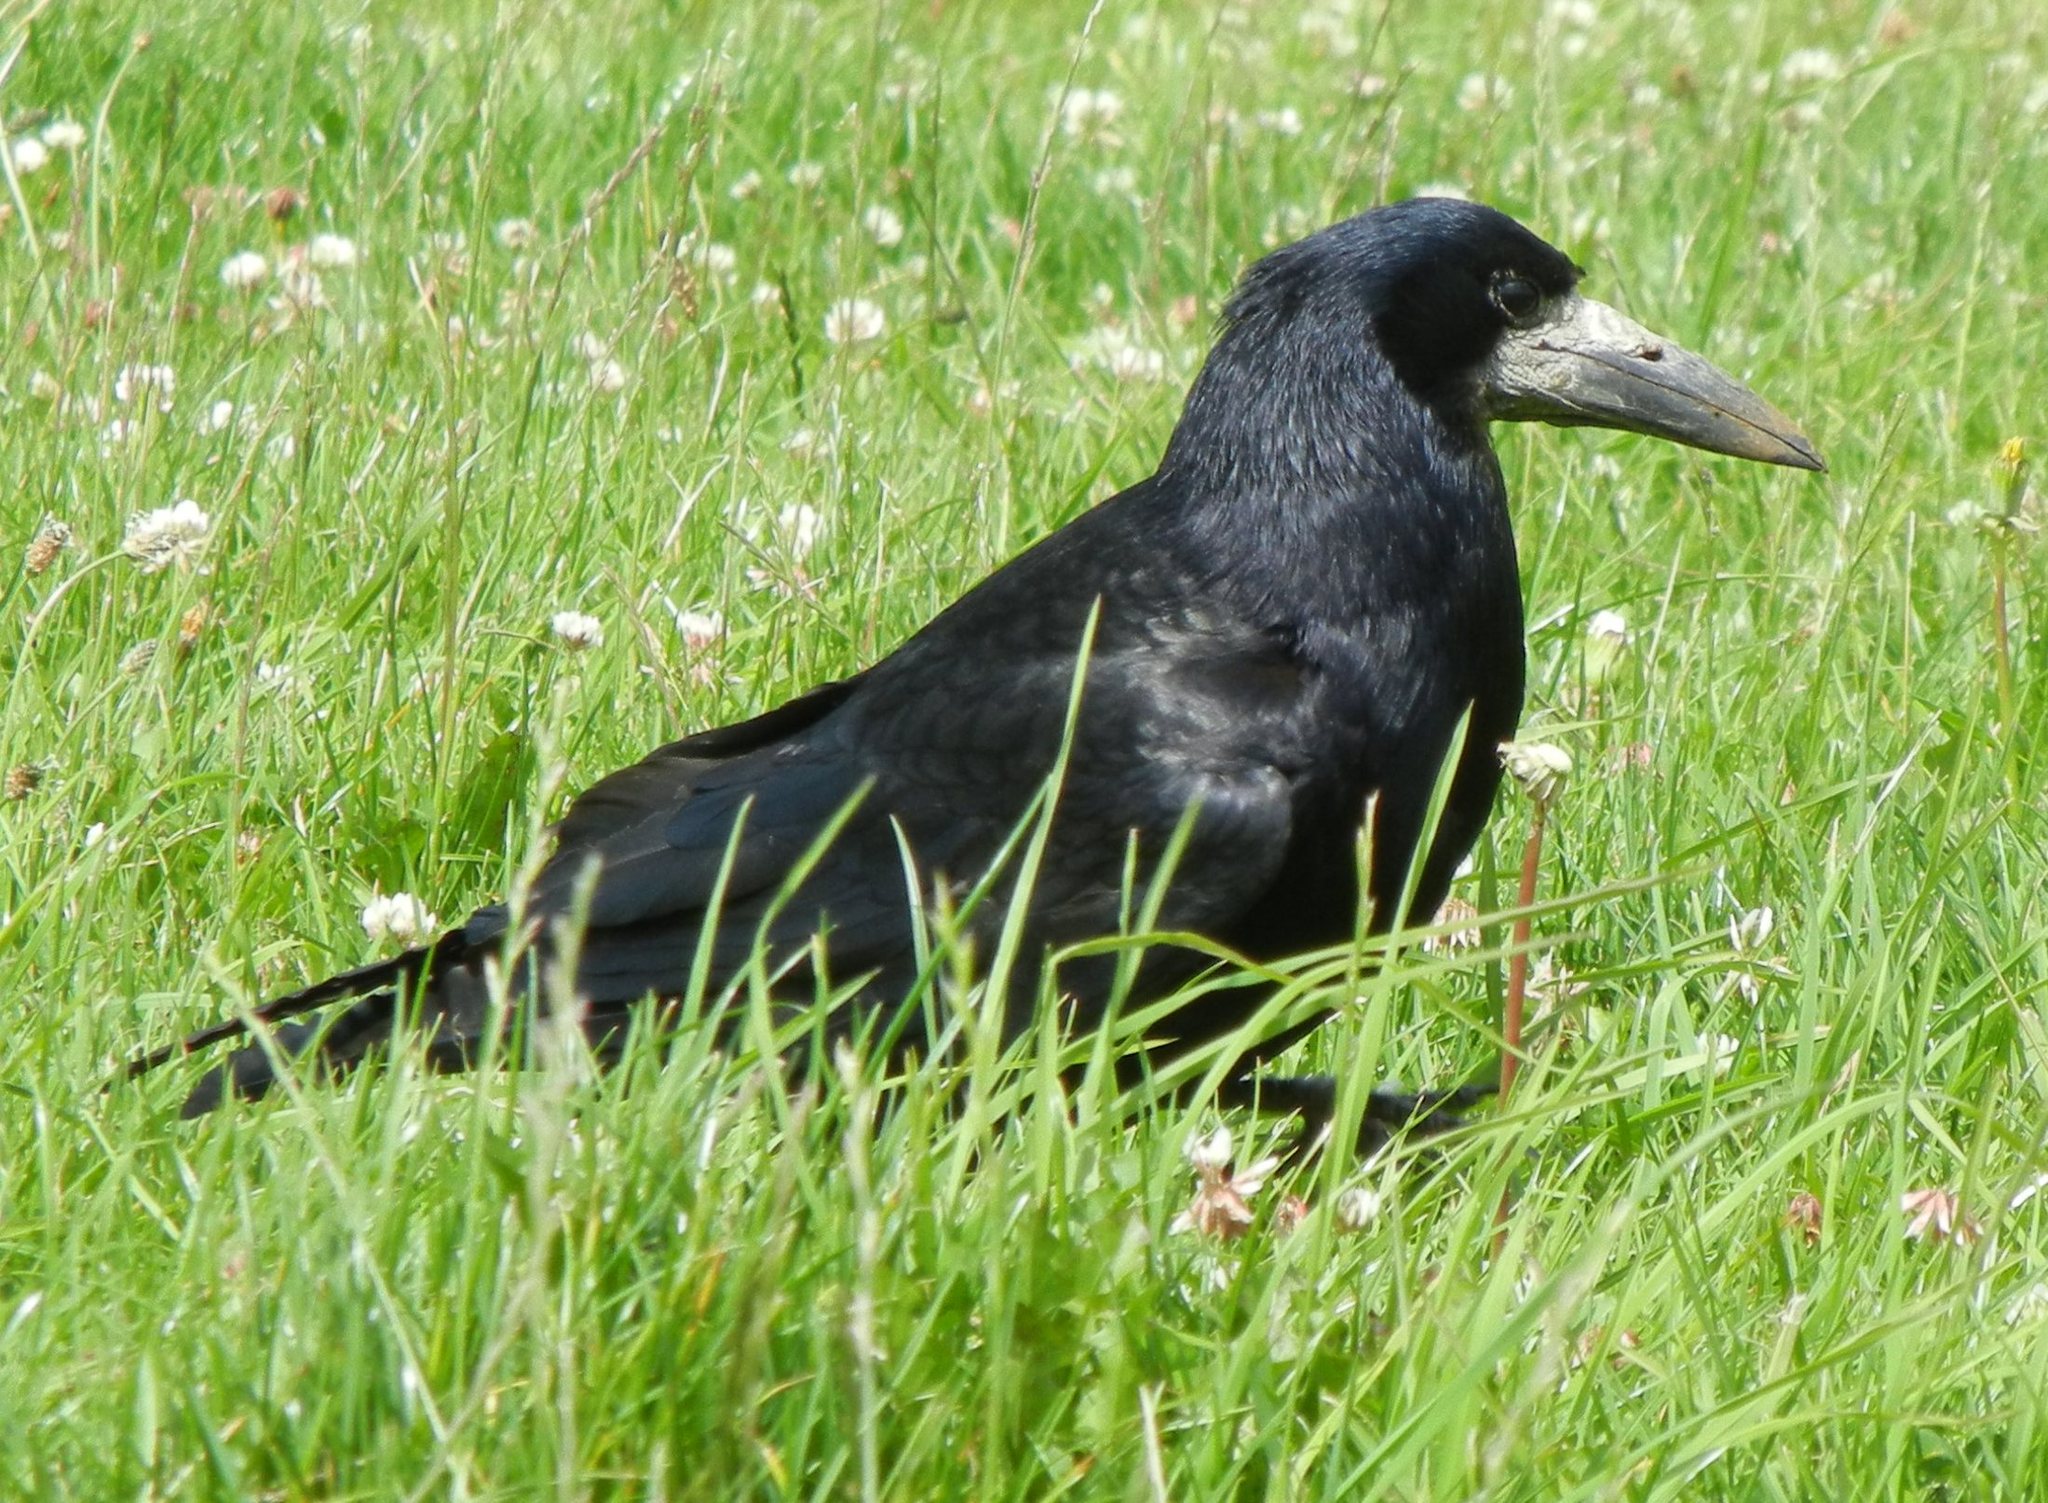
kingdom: Animalia
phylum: Chordata
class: Aves
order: Passeriformes
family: Corvidae
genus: Corvus
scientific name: Corvus frugilegus
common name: Rook
